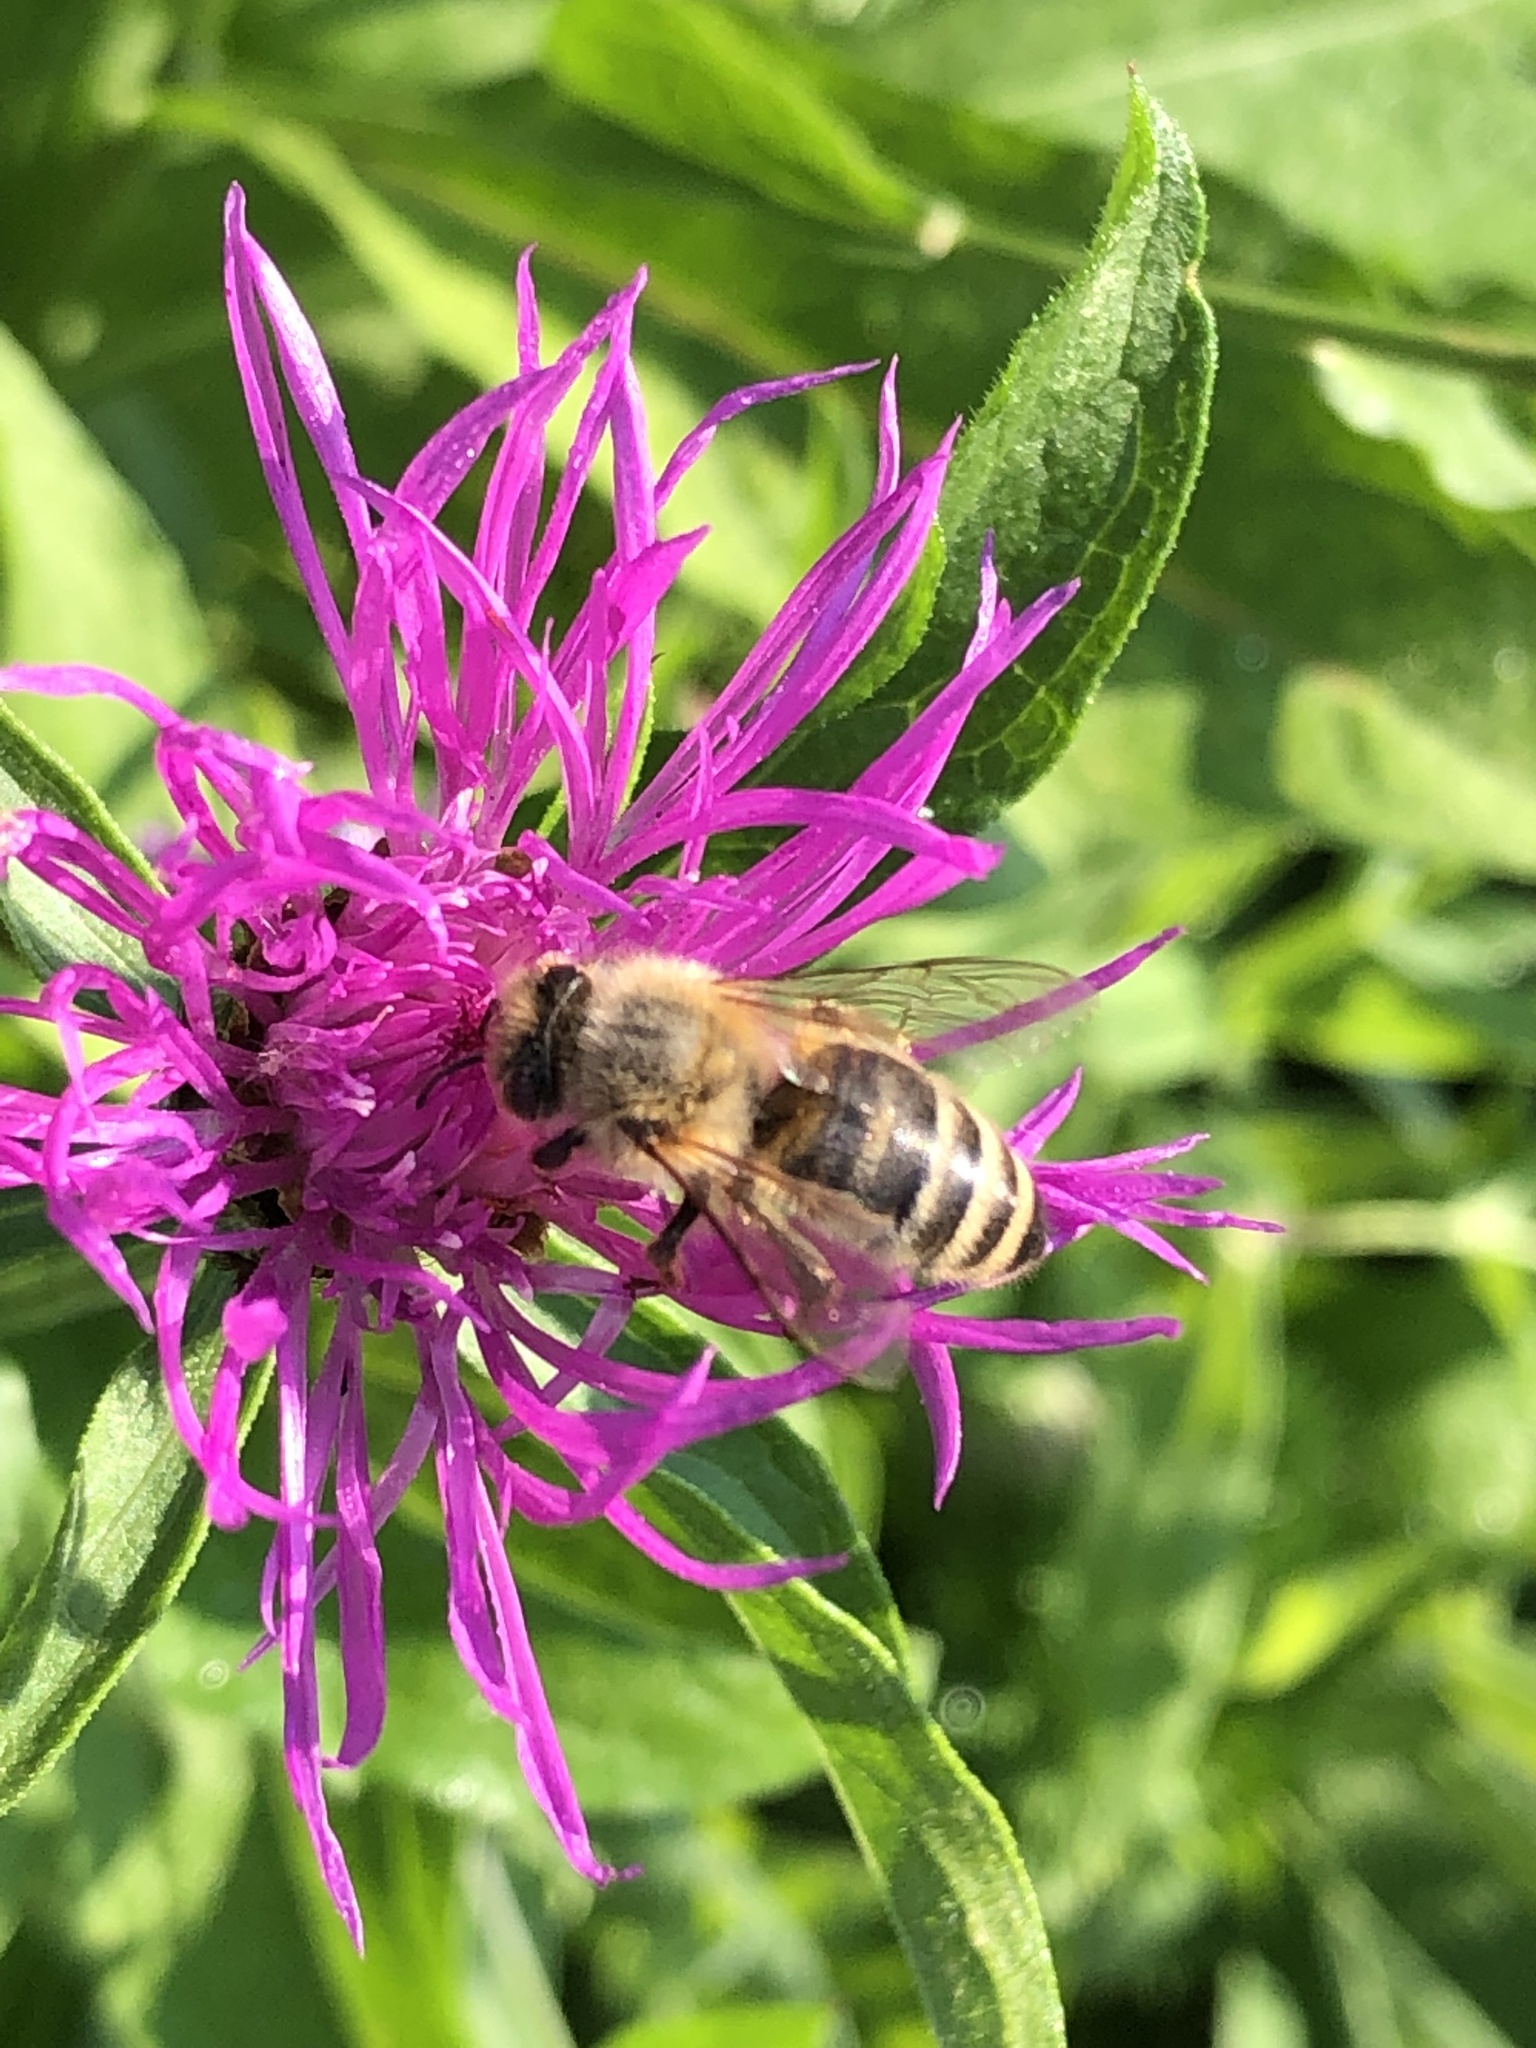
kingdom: Animalia
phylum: Arthropoda
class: Insecta
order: Hymenoptera
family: Apidae
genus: Apis
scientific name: Apis mellifera
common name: Honey bee
